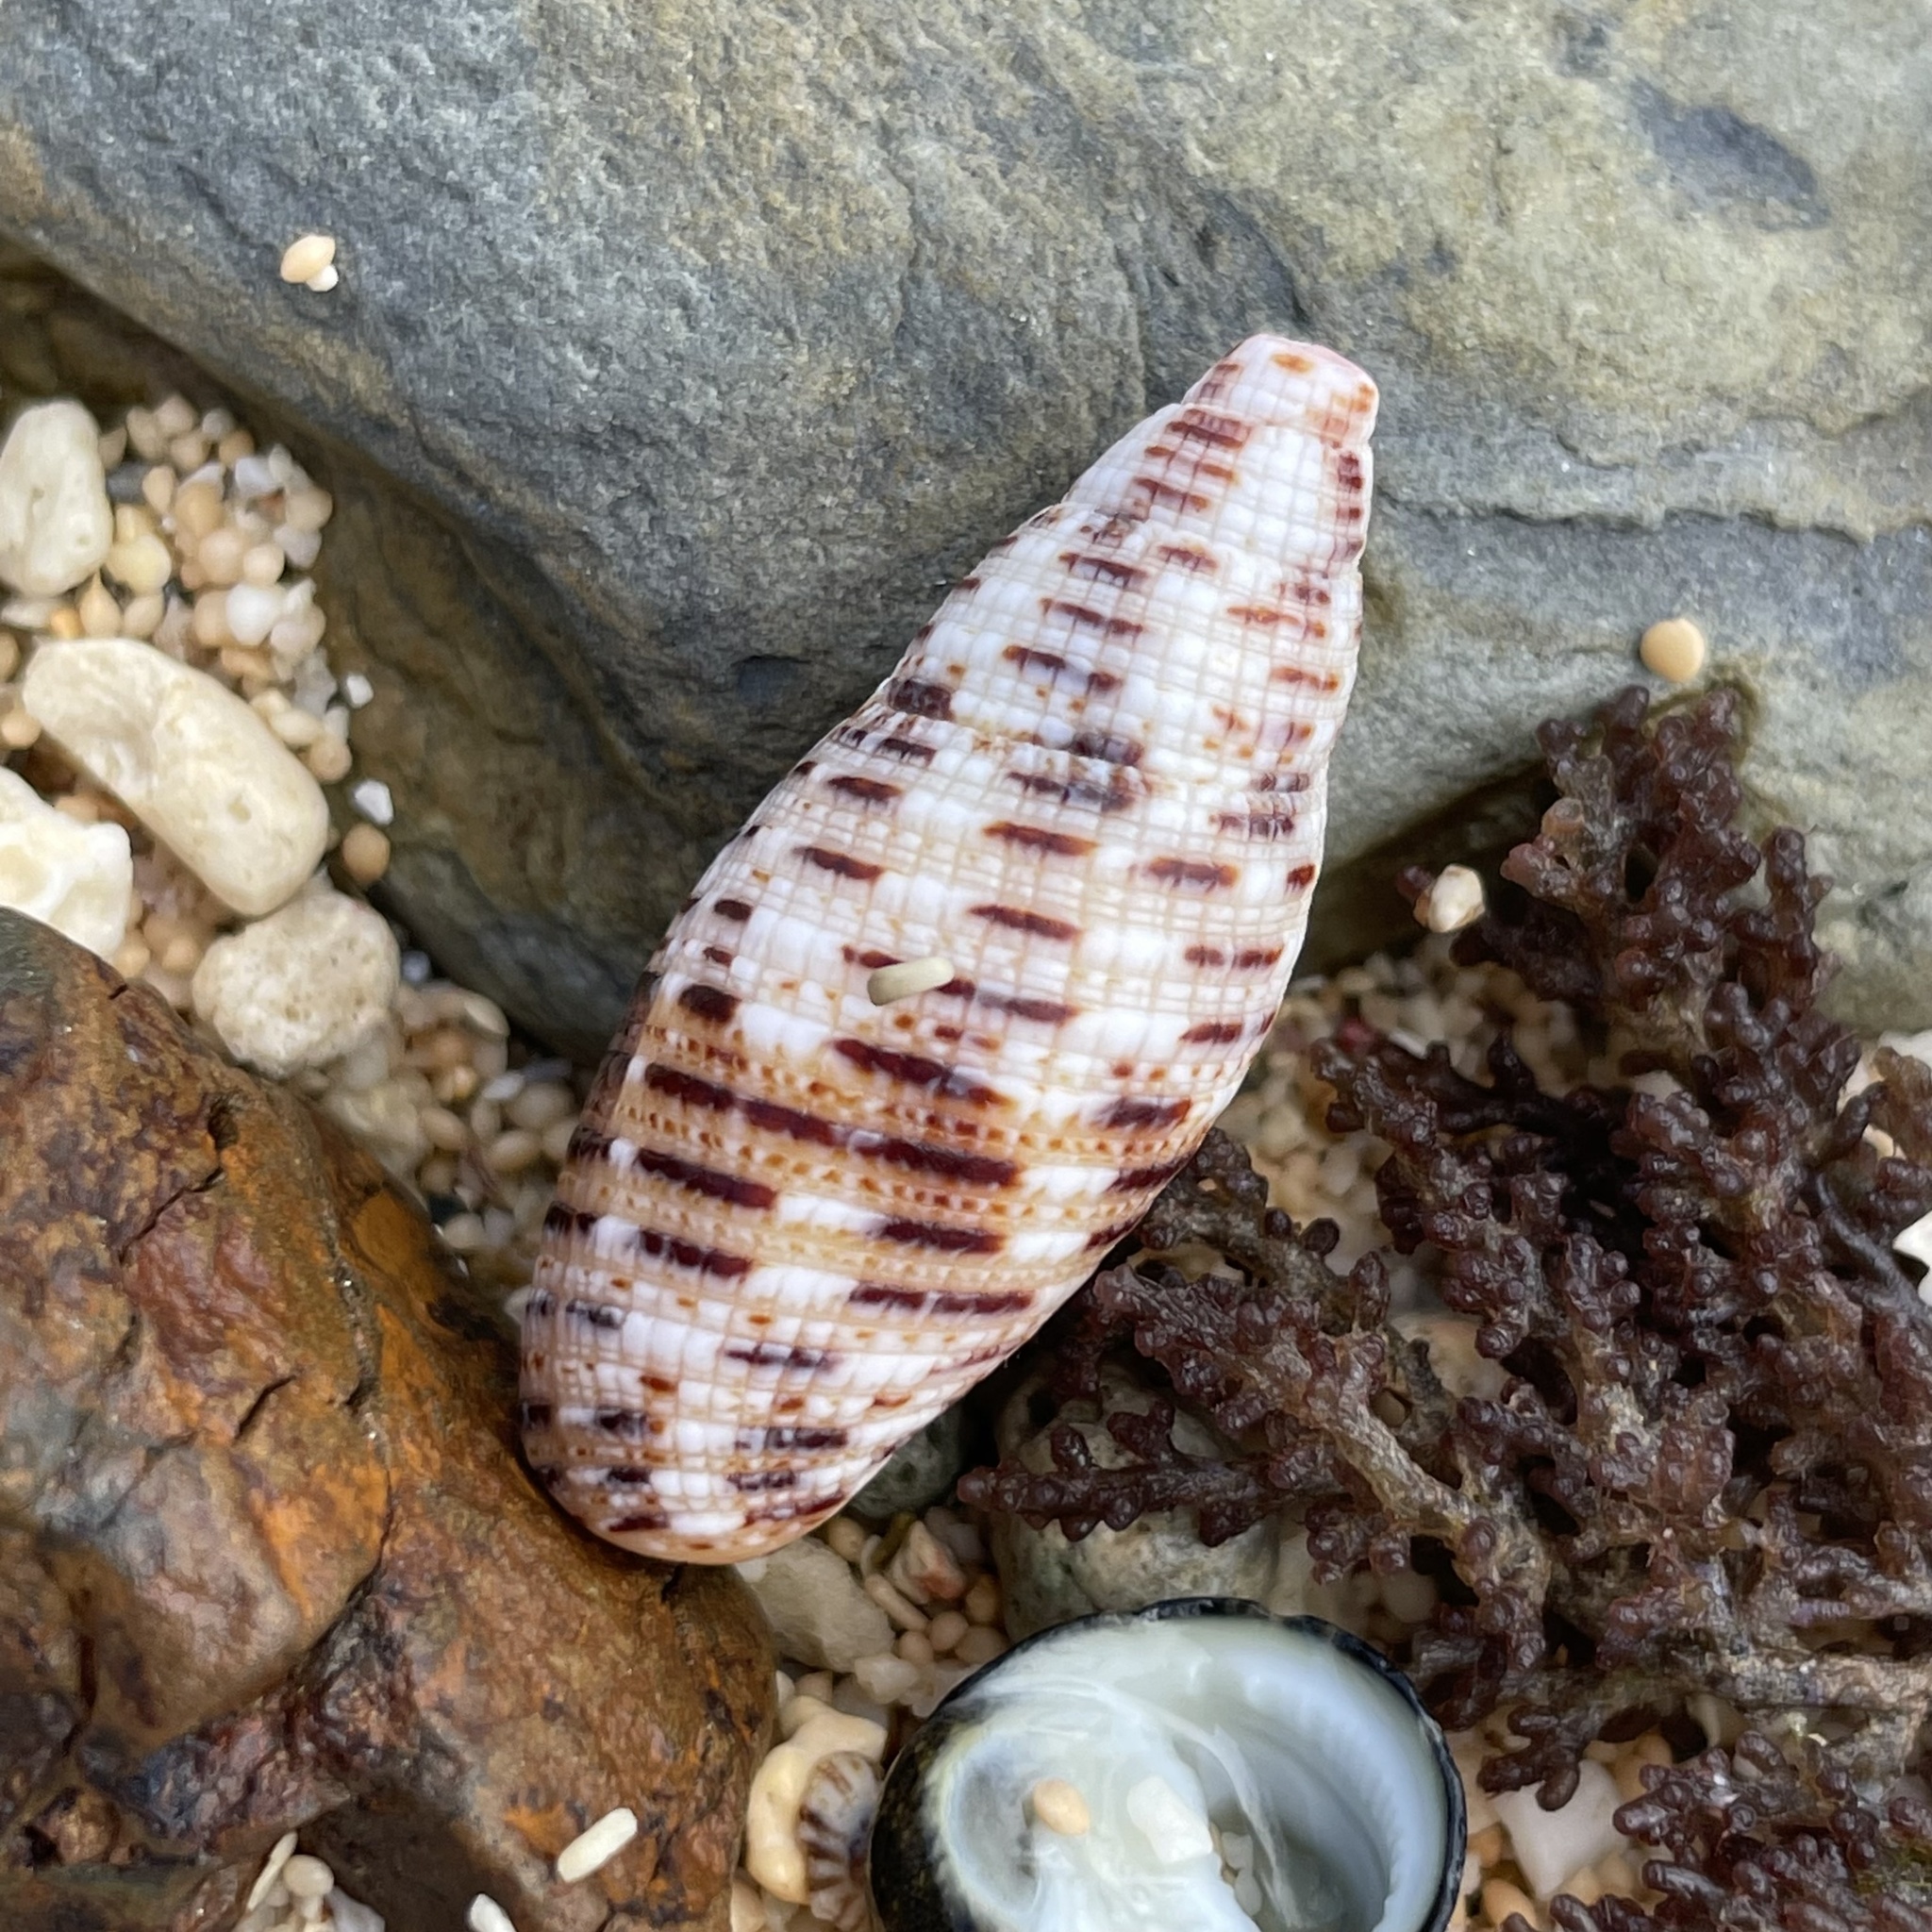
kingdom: Animalia
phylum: Mollusca
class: Gastropoda
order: Neogastropoda
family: Mitridae
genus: Neocancilla
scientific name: Neocancilla papilio
